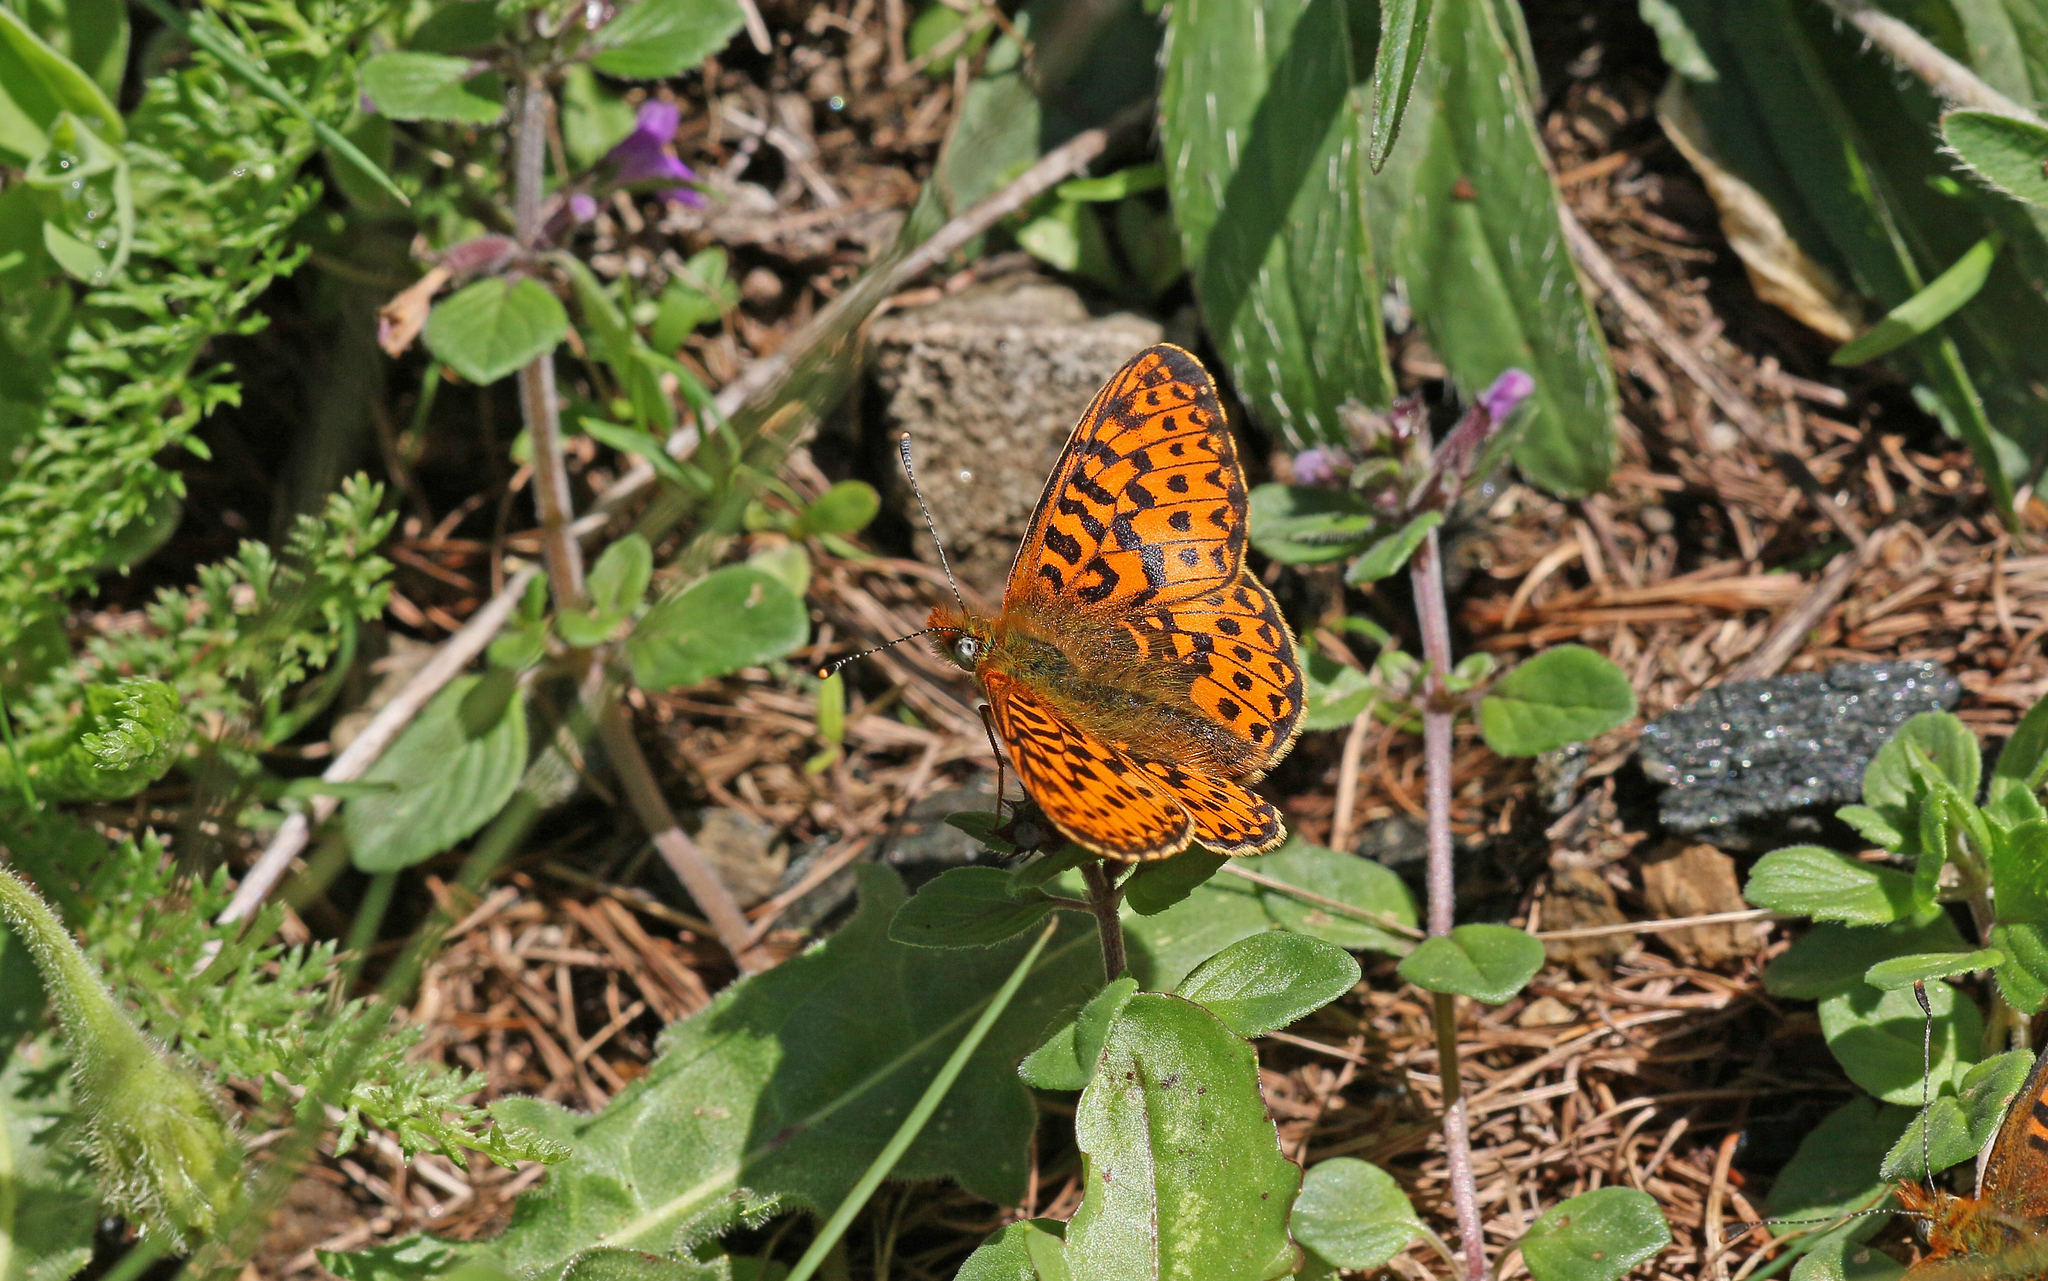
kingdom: Animalia
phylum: Arthropoda
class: Insecta
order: Lepidoptera
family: Nymphalidae
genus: Clossiana
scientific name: Clossiana euphrosyne
